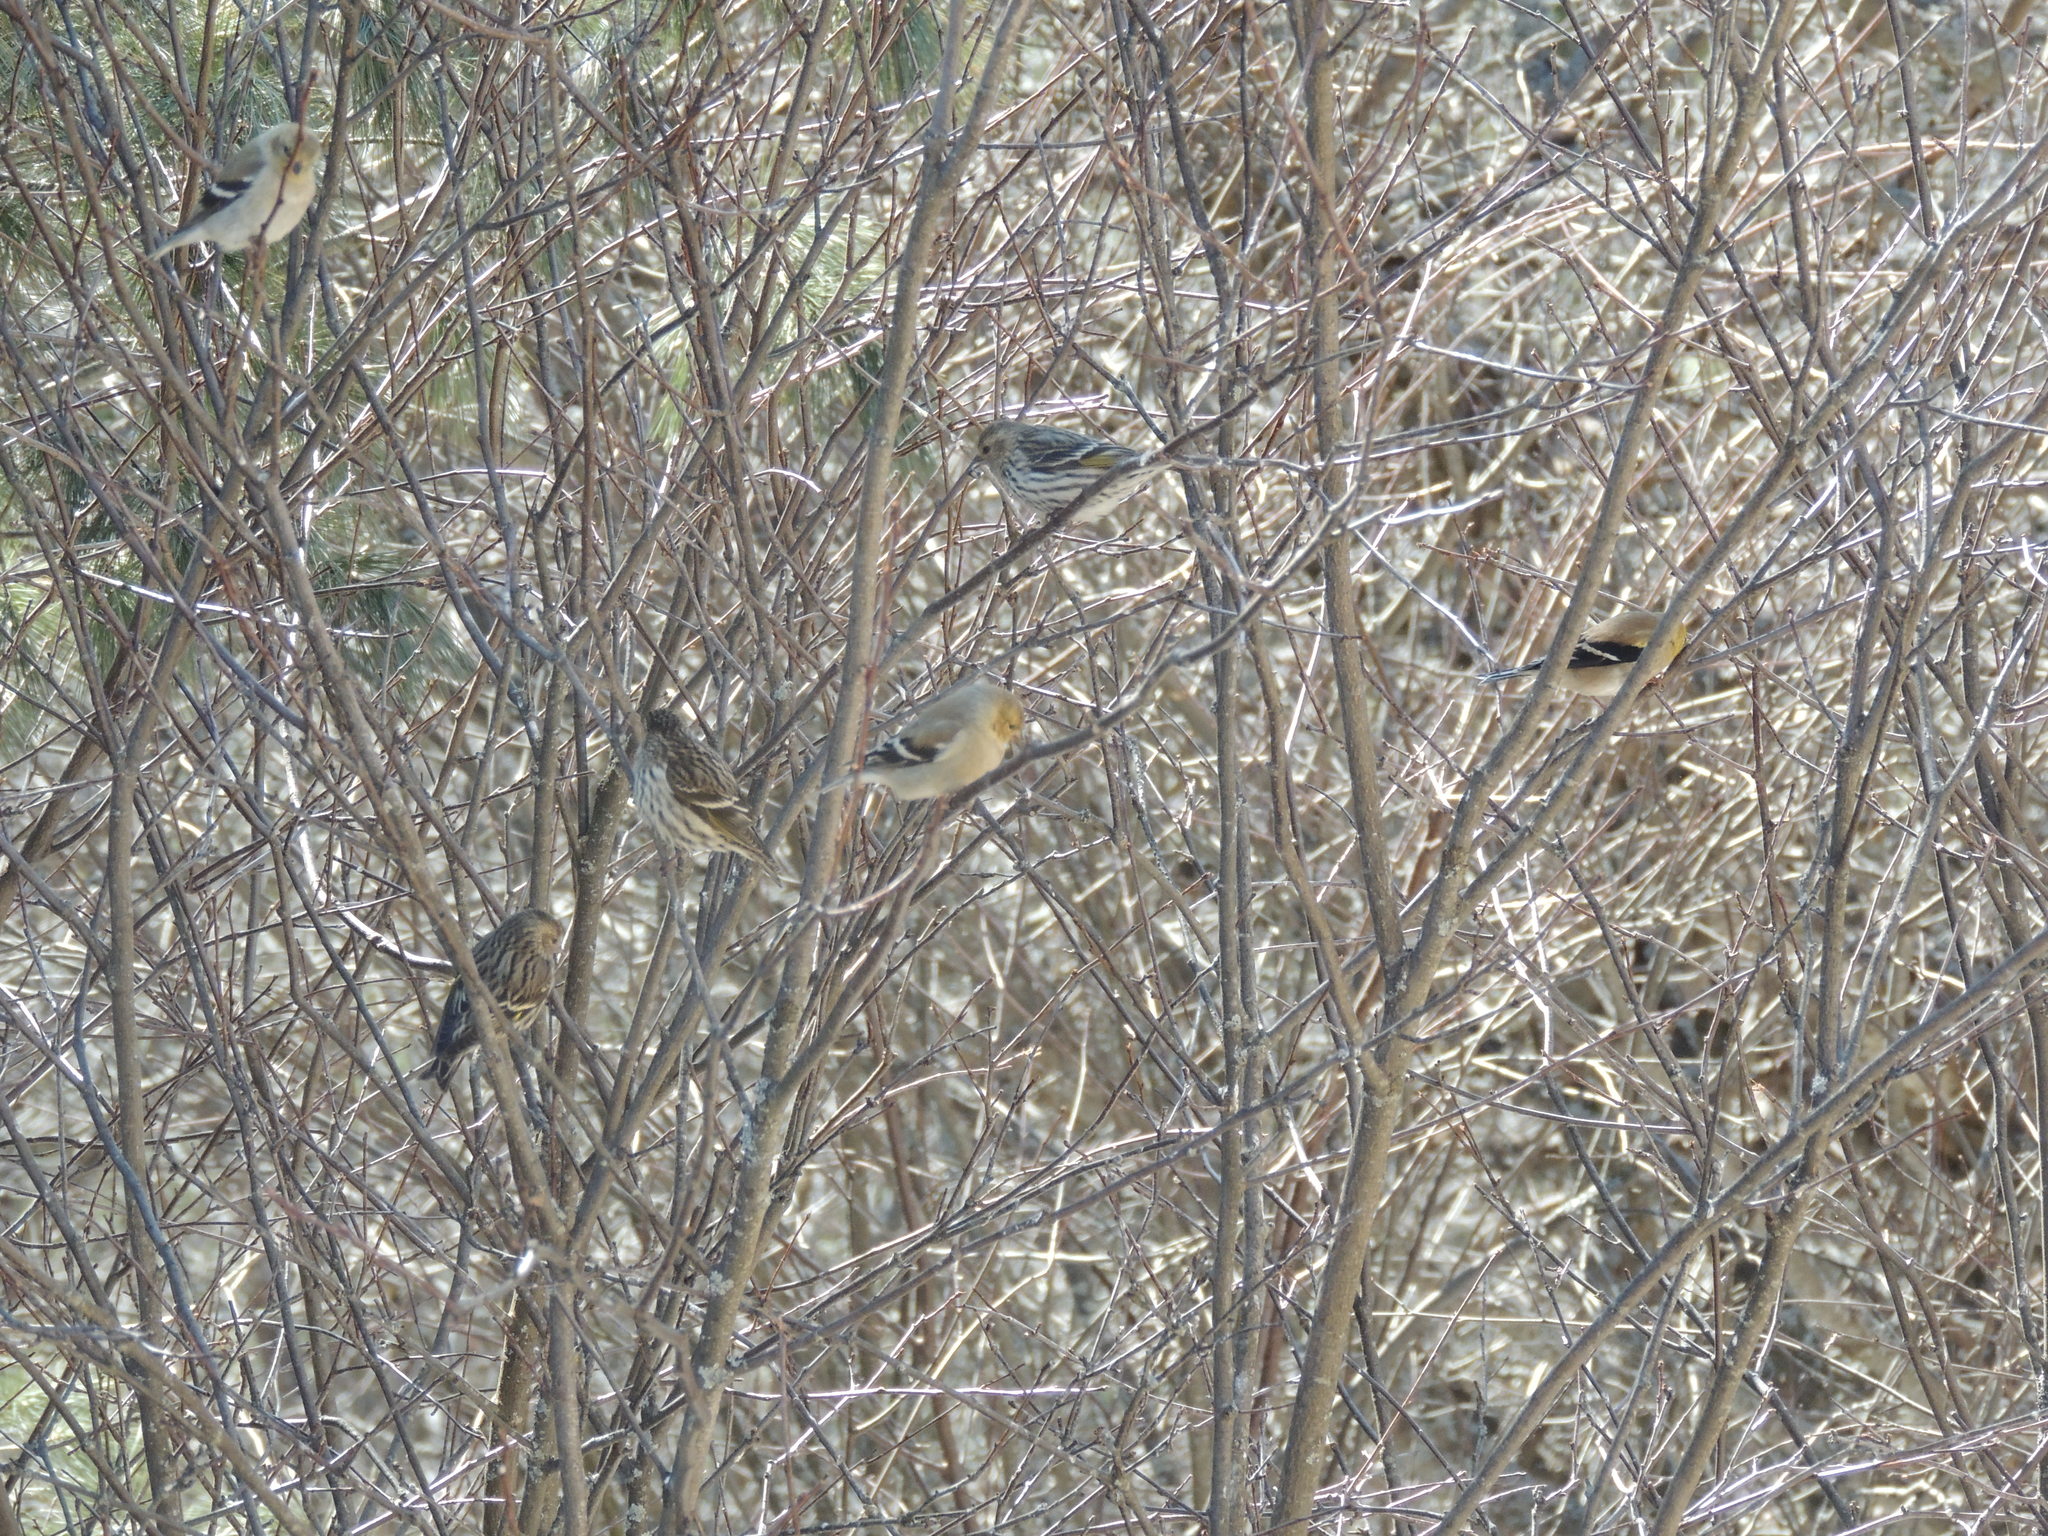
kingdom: Animalia
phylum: Chordata
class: Aves
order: Passeriformes
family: Fringillidae
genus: Spinus
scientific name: Spinus tristis
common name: American goldfinch
